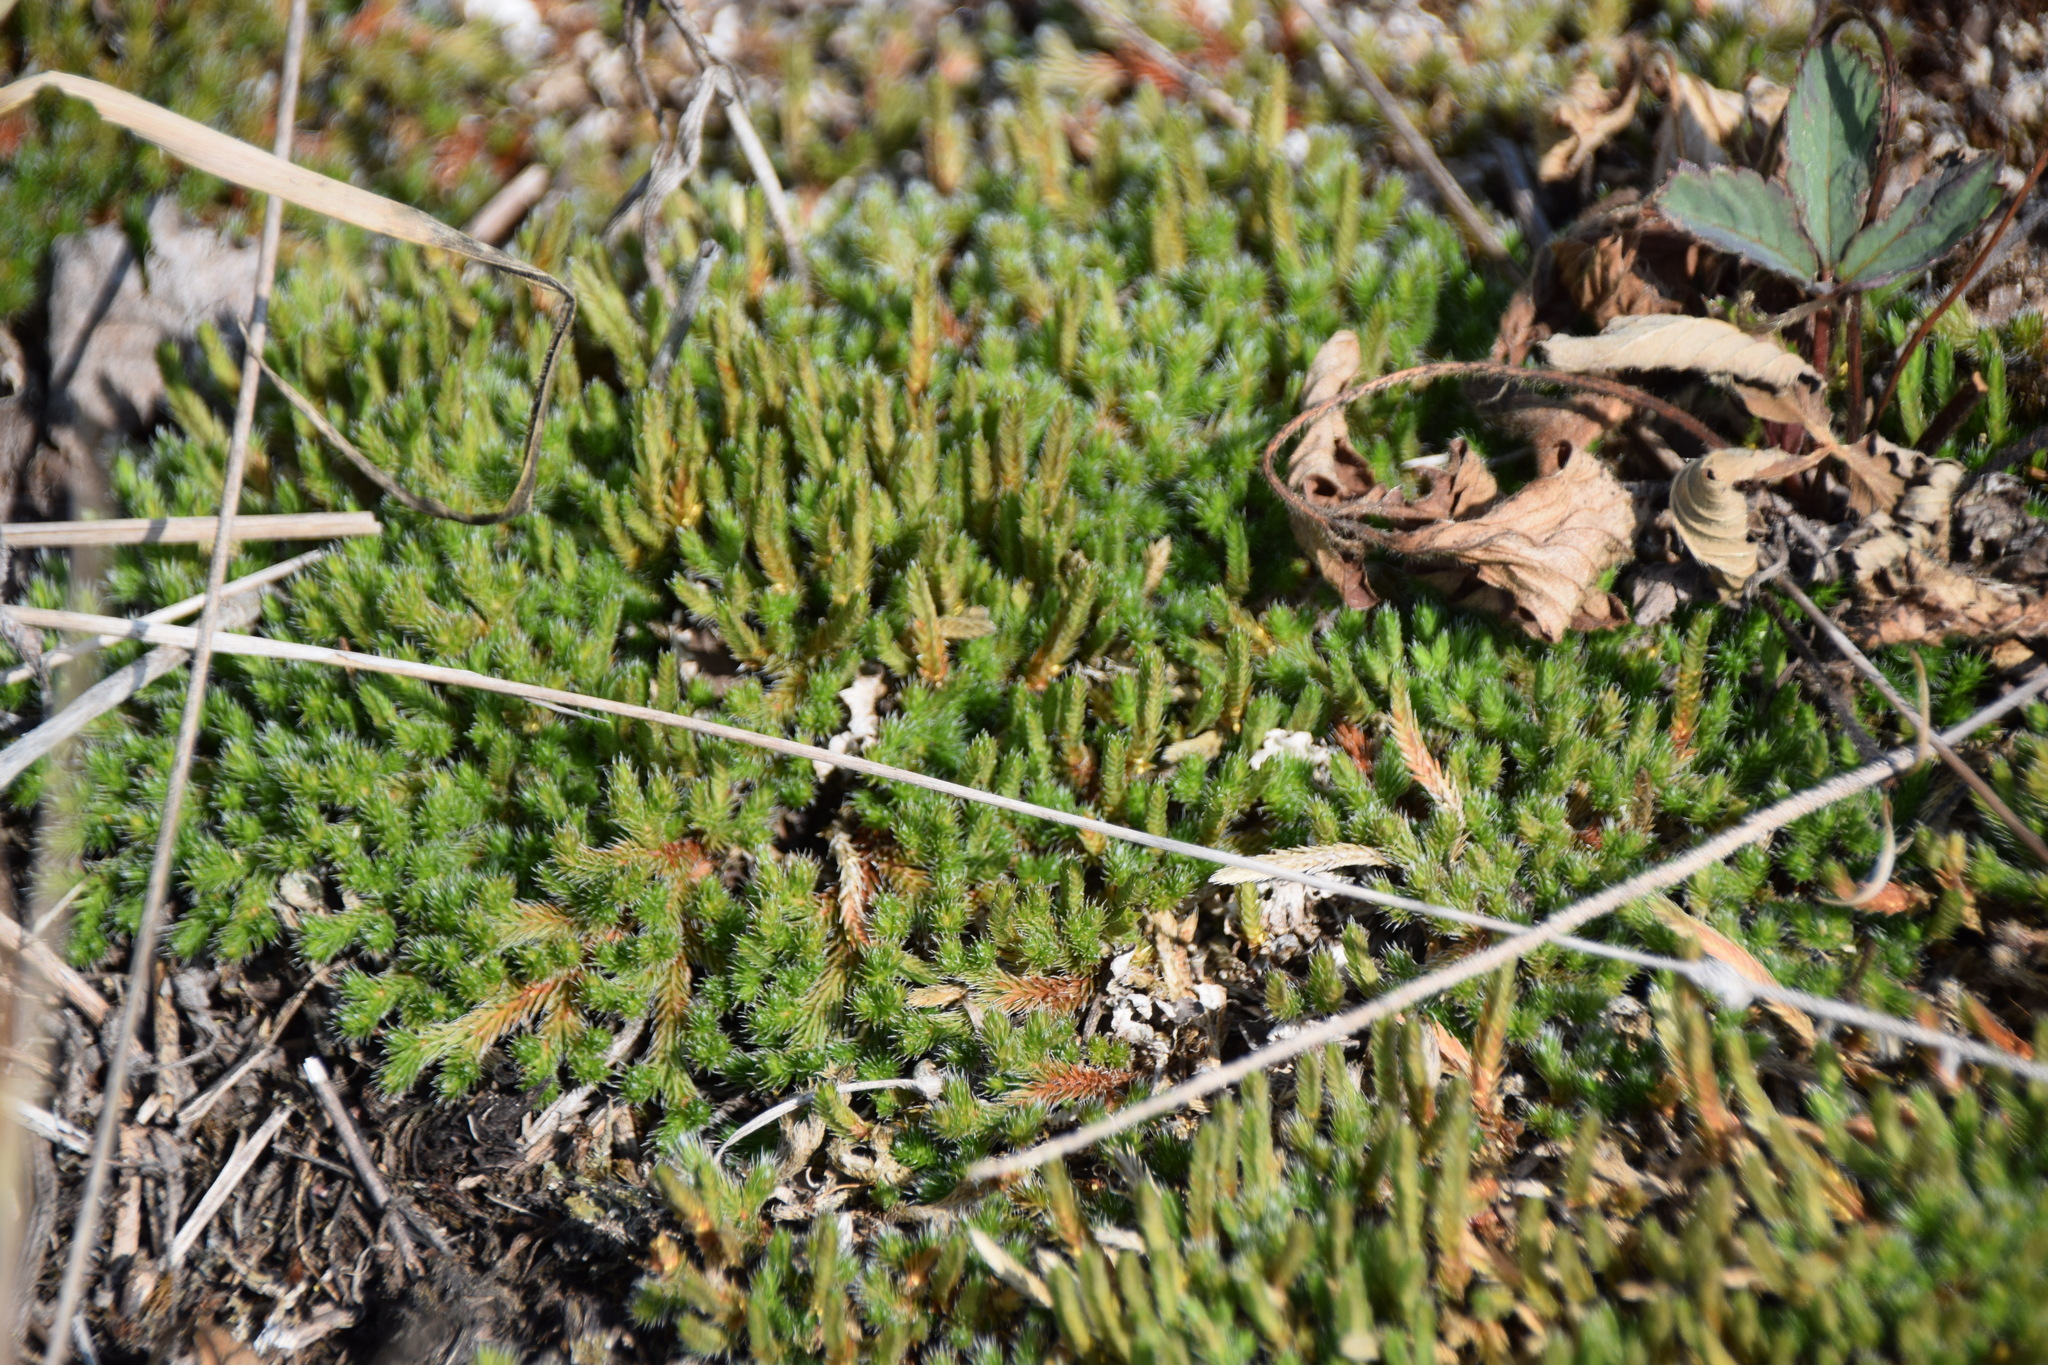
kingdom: Plantae
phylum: Tracheophyta
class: Lycopodiopsida
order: Selaginellales
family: Selaginellaceae
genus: Selaginella
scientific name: Selaginella rupestris
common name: Dwarf spikemoss
